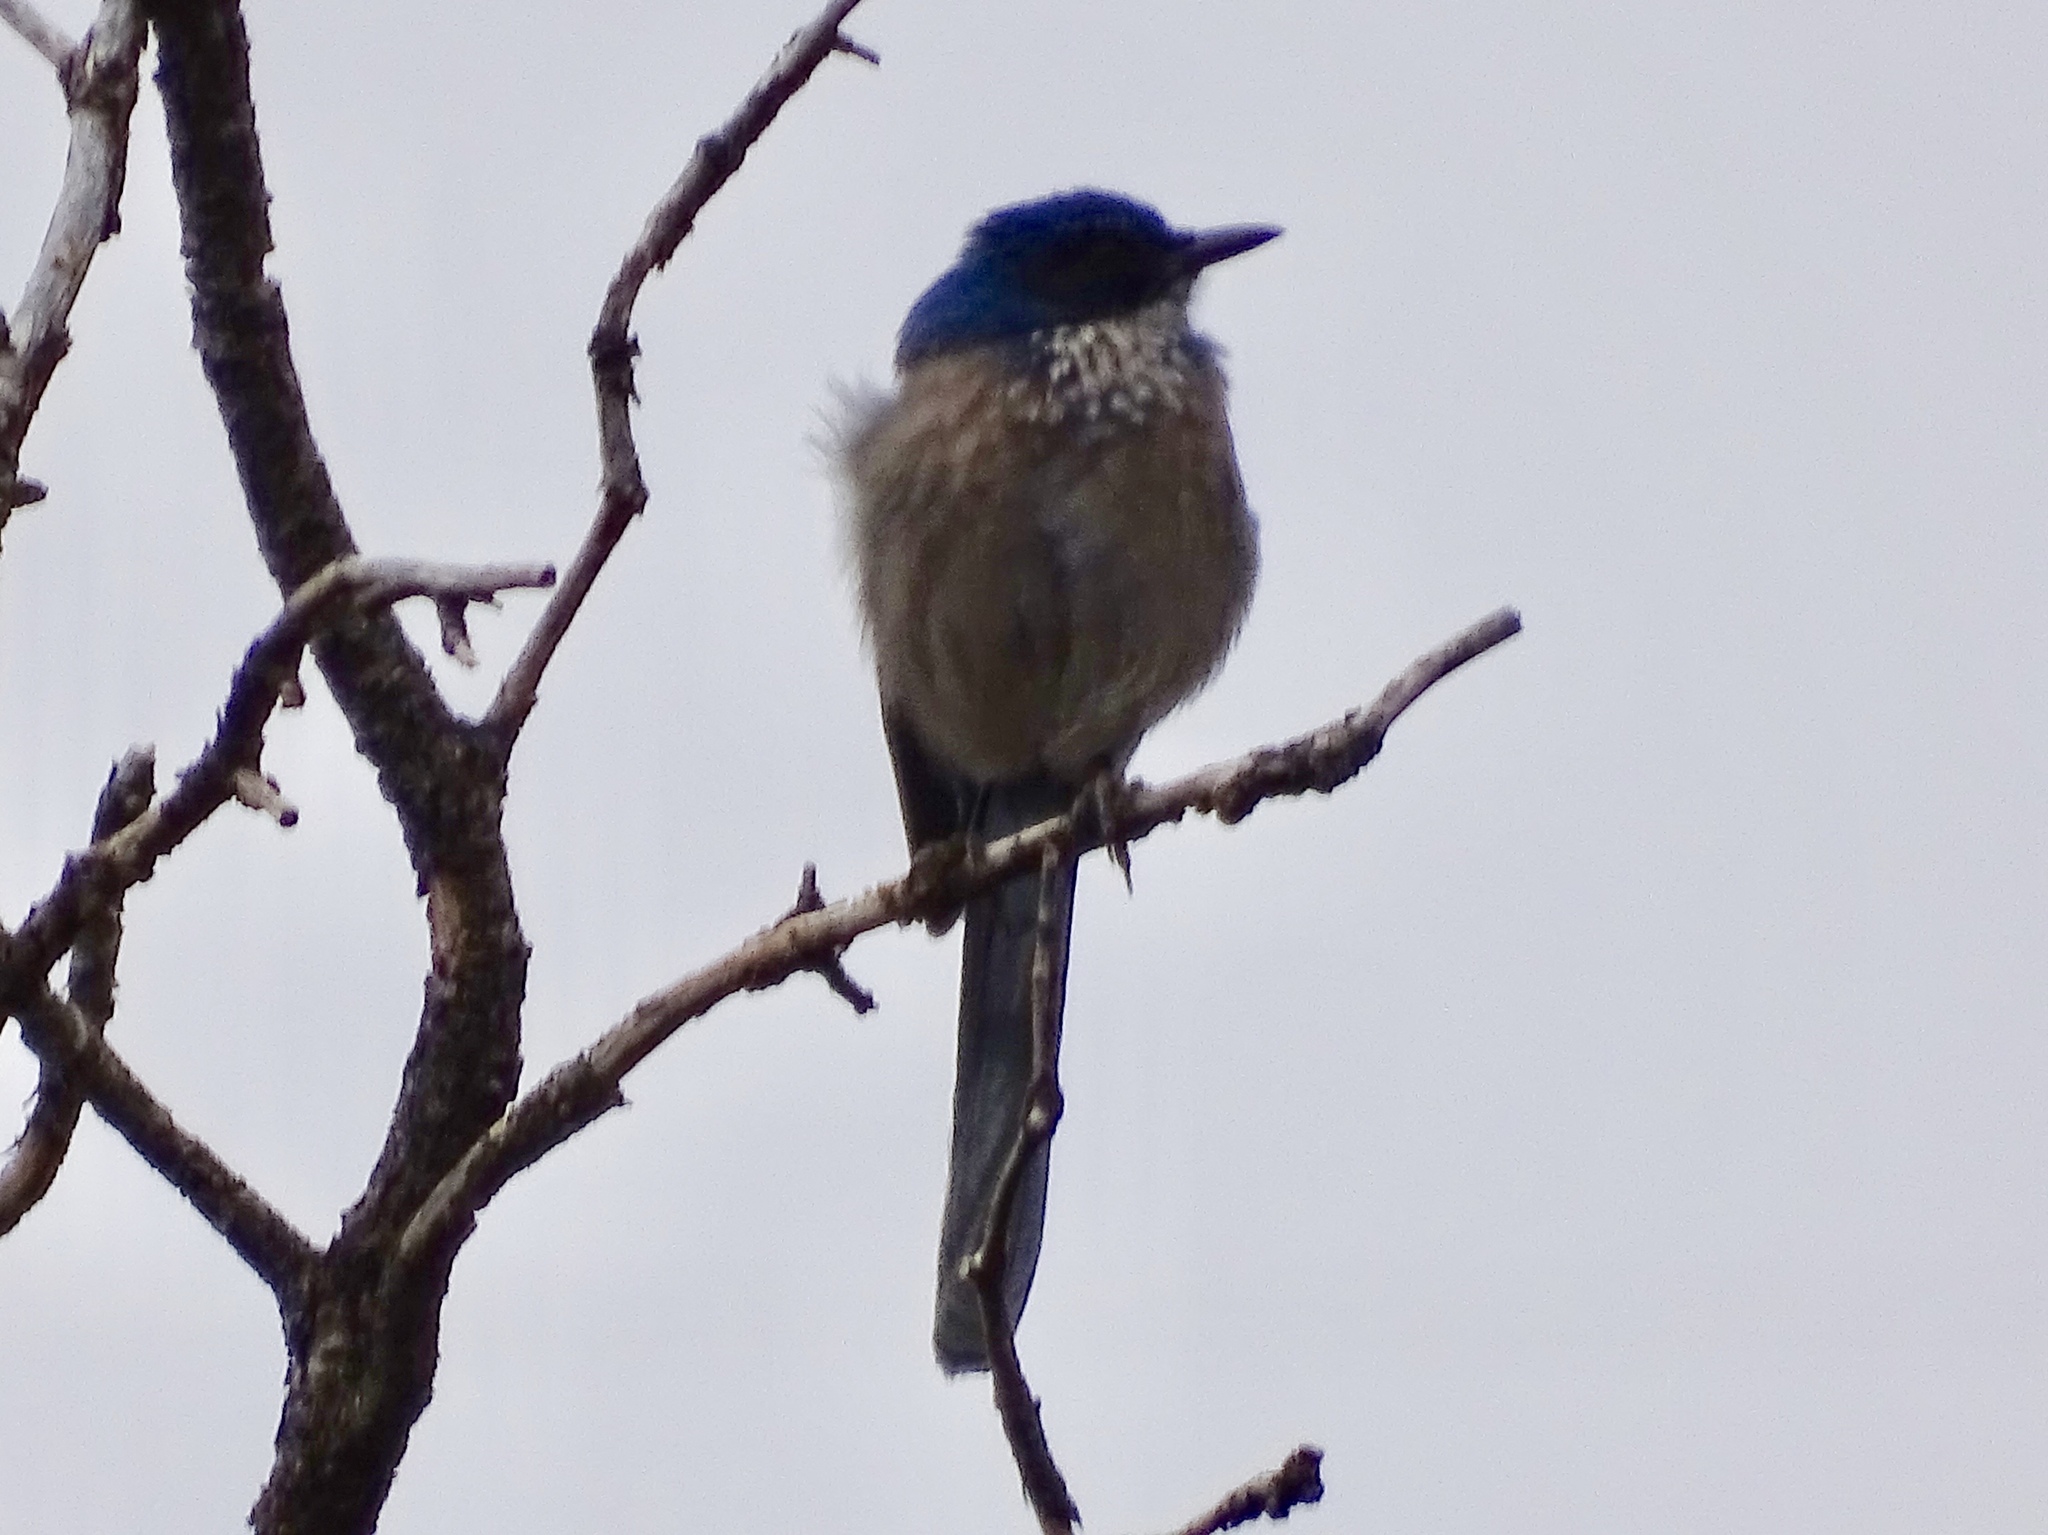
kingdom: Animalia
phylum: Chordata
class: Aves
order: Passeriformes
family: Corvidae
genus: Aphelocoma
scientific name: Aphelocoma woodhouseii
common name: Woodhouse's scrub-jay
